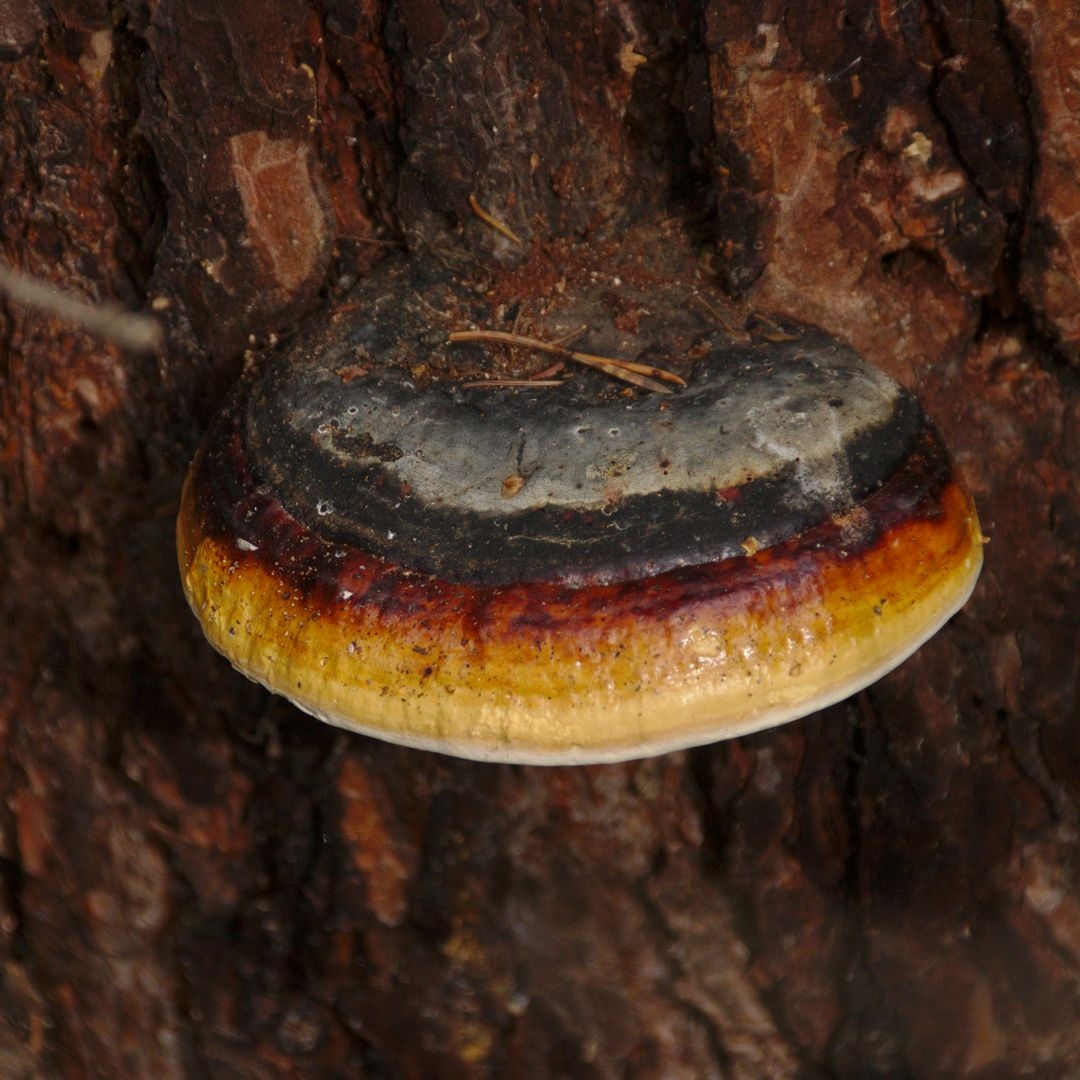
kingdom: Fungi
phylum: Basidiomycota
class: Agaricomycetes
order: Polyporales
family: Fomitopsidaceae
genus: Fomitopsis
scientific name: Fomitopsis pinicola
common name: Red-belted bracket
